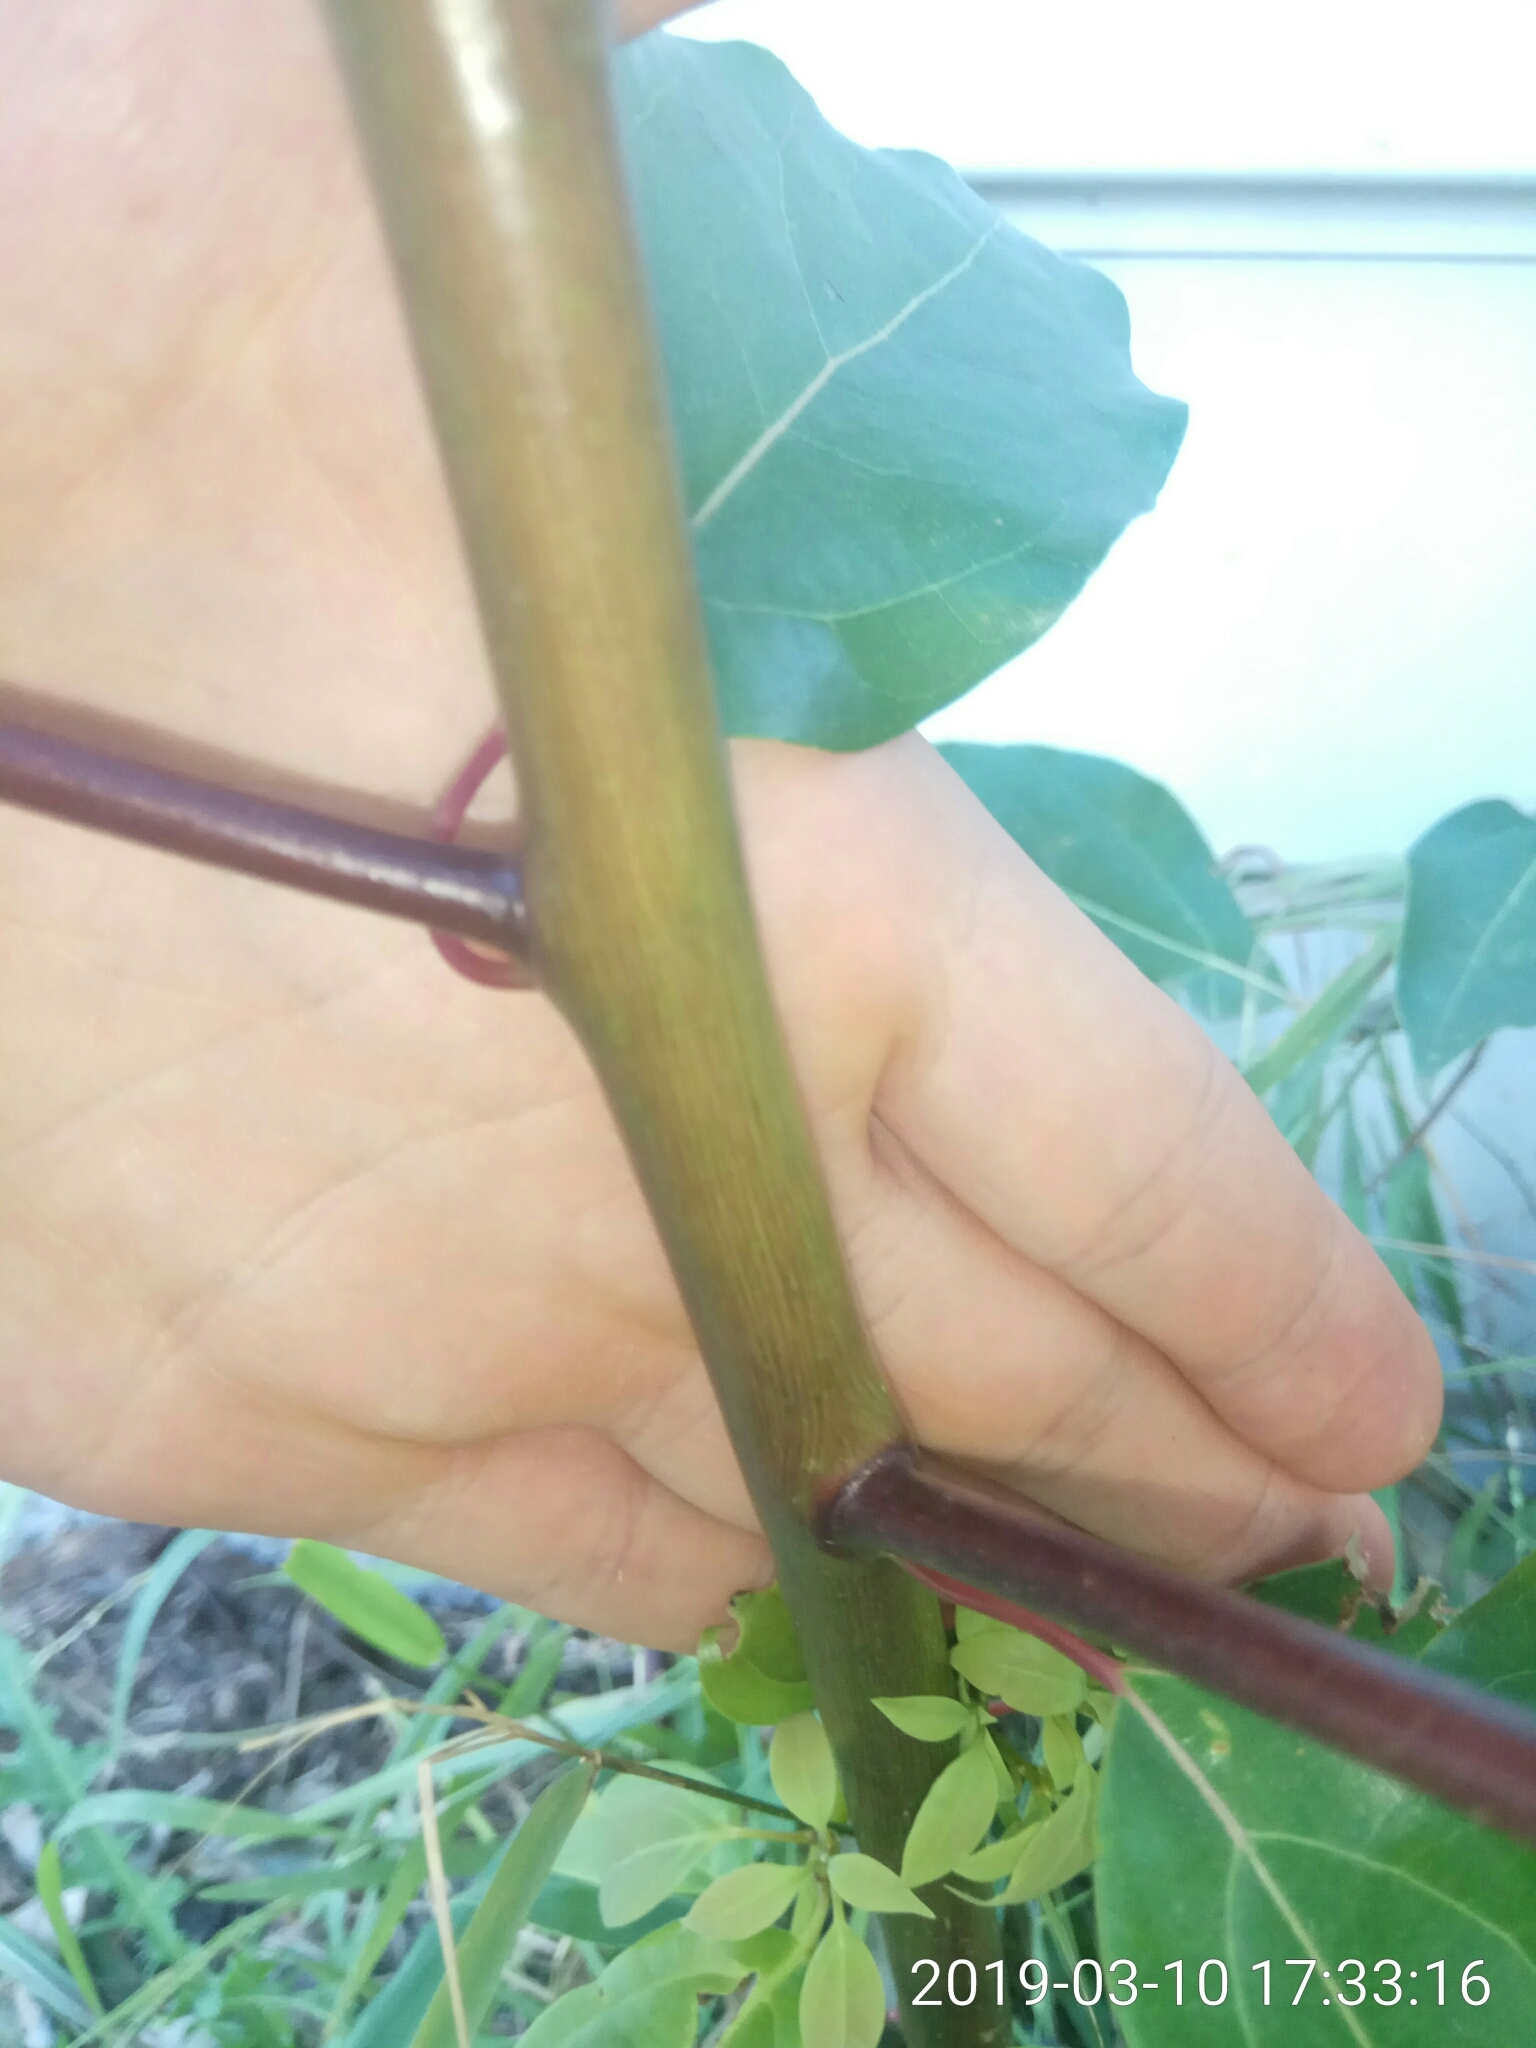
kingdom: Plantae
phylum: Tracheophyta
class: Magnoliopsida
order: Laurales
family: Lauraceae
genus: Cinnamomum
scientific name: Cinnamomum camphora
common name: Camphortree
